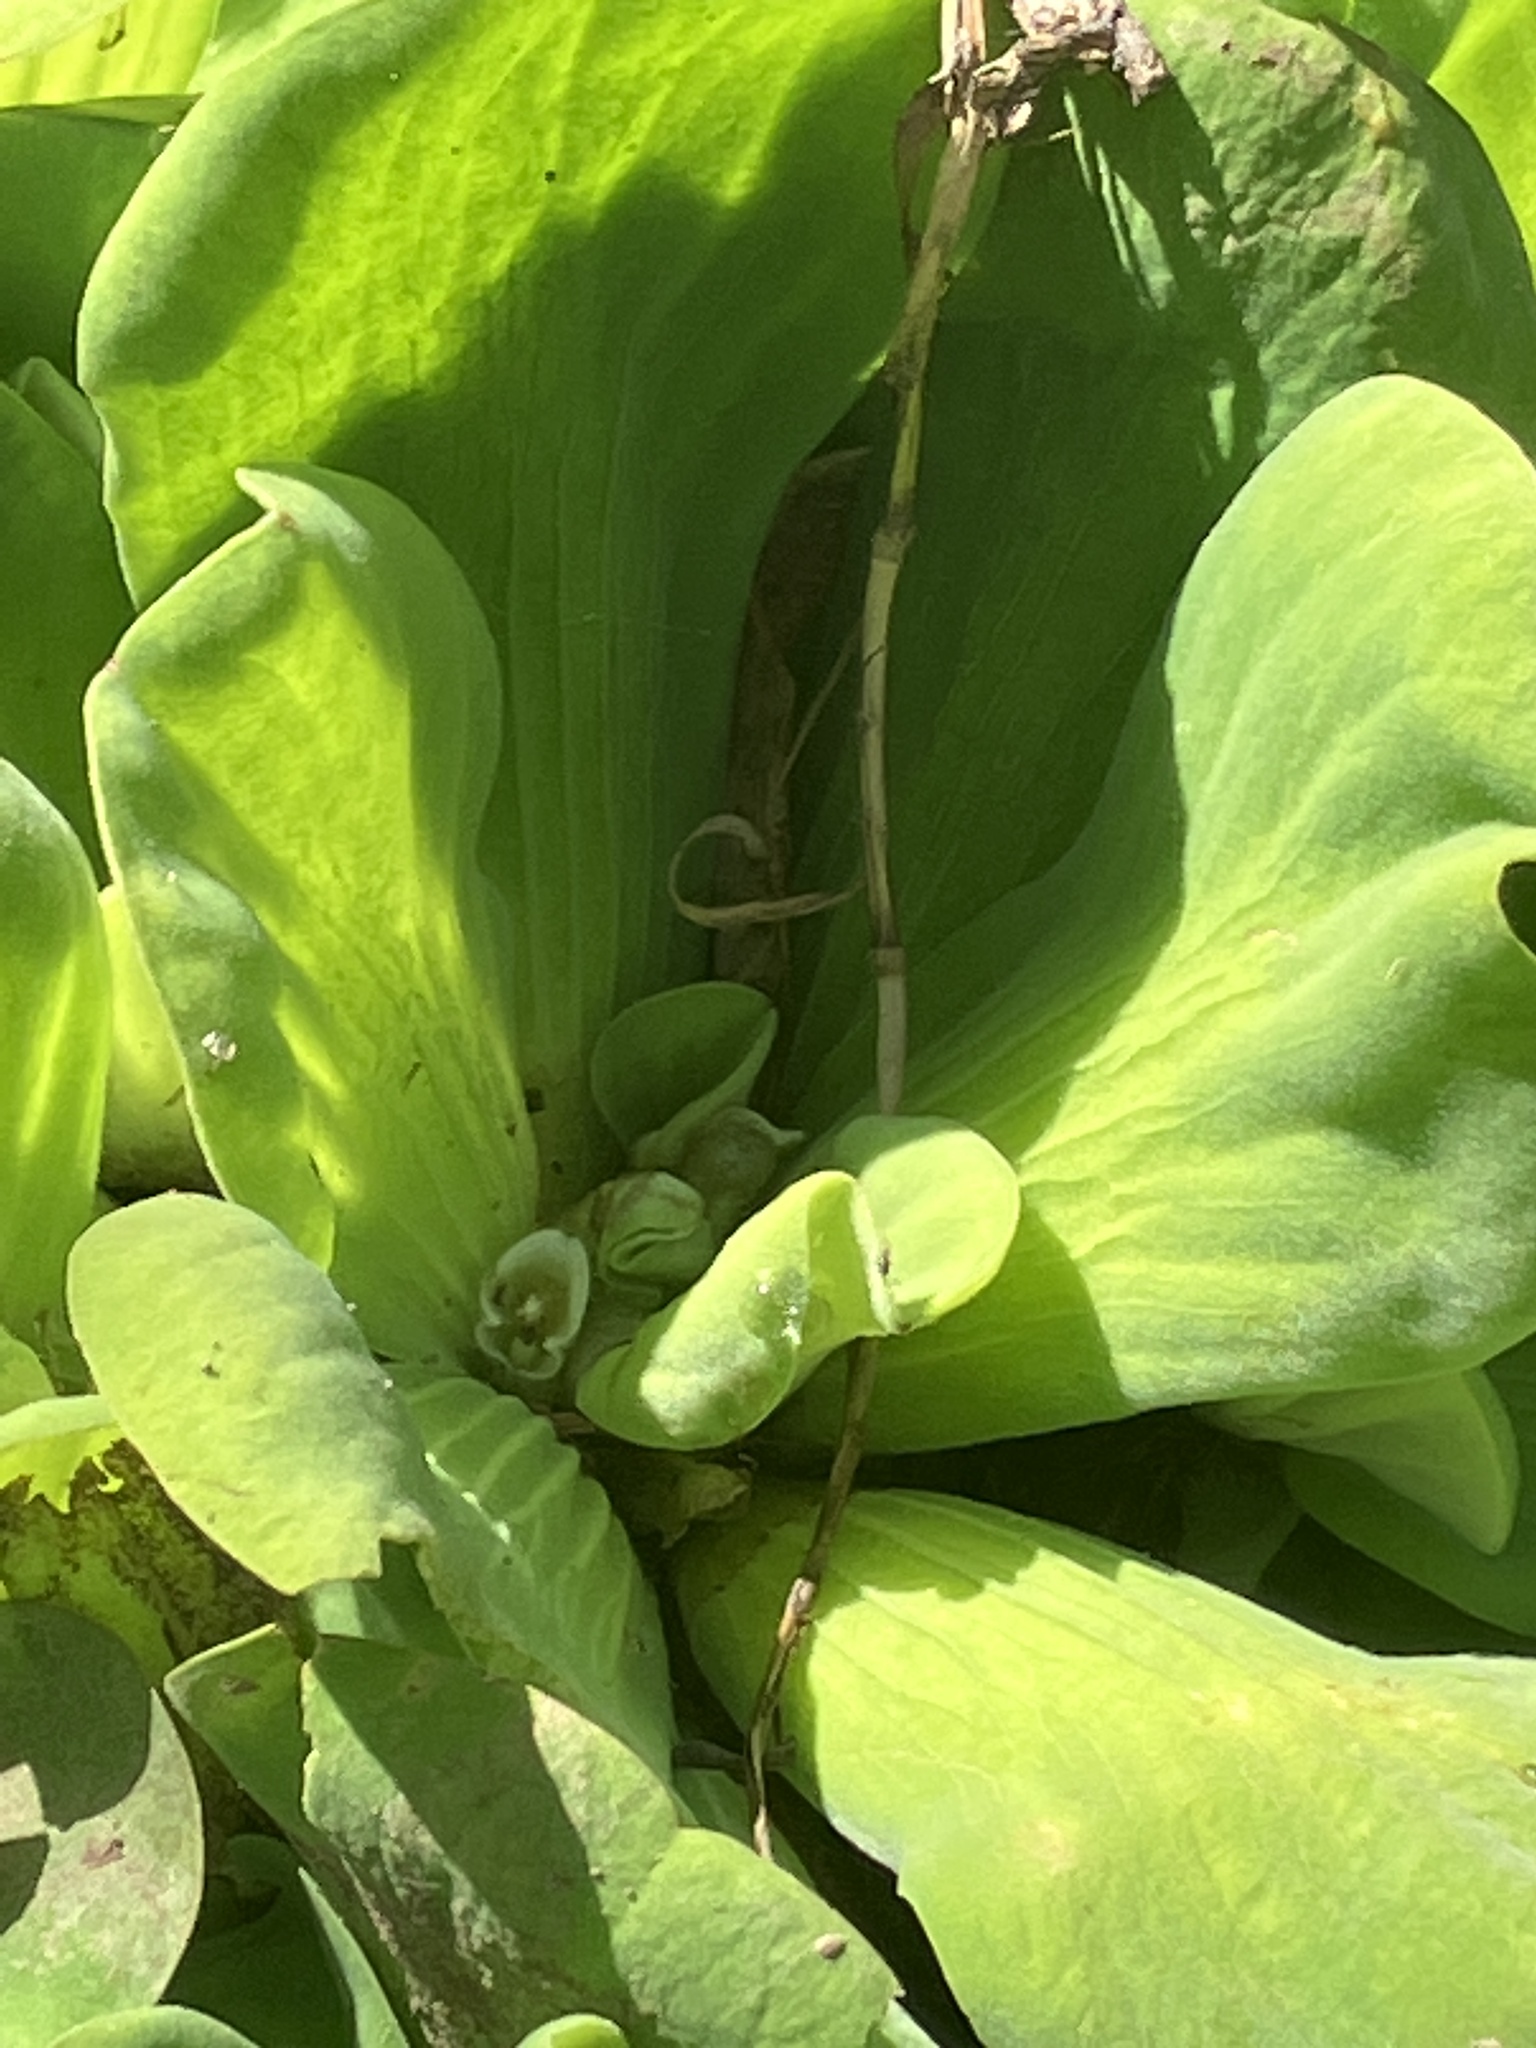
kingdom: Plantae
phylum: Tracheophyta
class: Liliopsida
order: Alismatales
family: Araceae
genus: Pistia
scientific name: Pistia stratiotes
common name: Water lettuce
